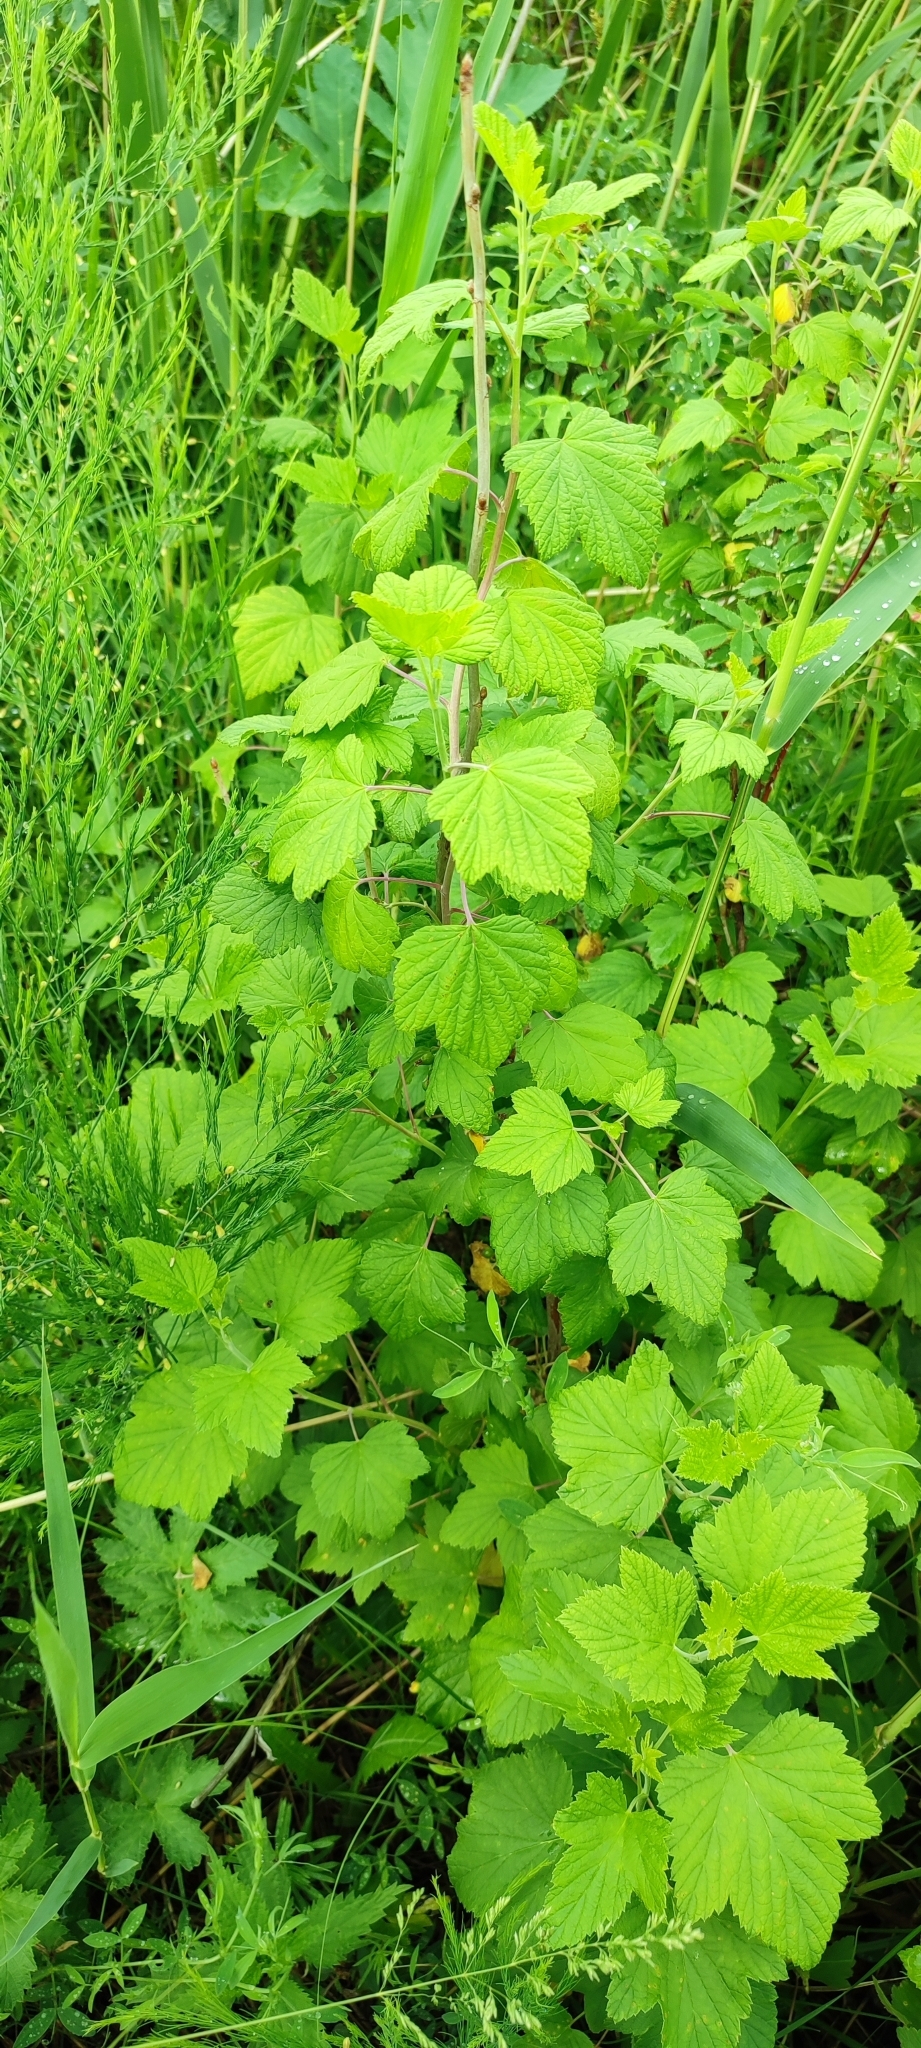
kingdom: Plantae
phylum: Tracheophyta
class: Magnoliopsida
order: Saxifragales
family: Grossulariaceae
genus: Ribes
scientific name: Ribes nigrum
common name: Black currant
